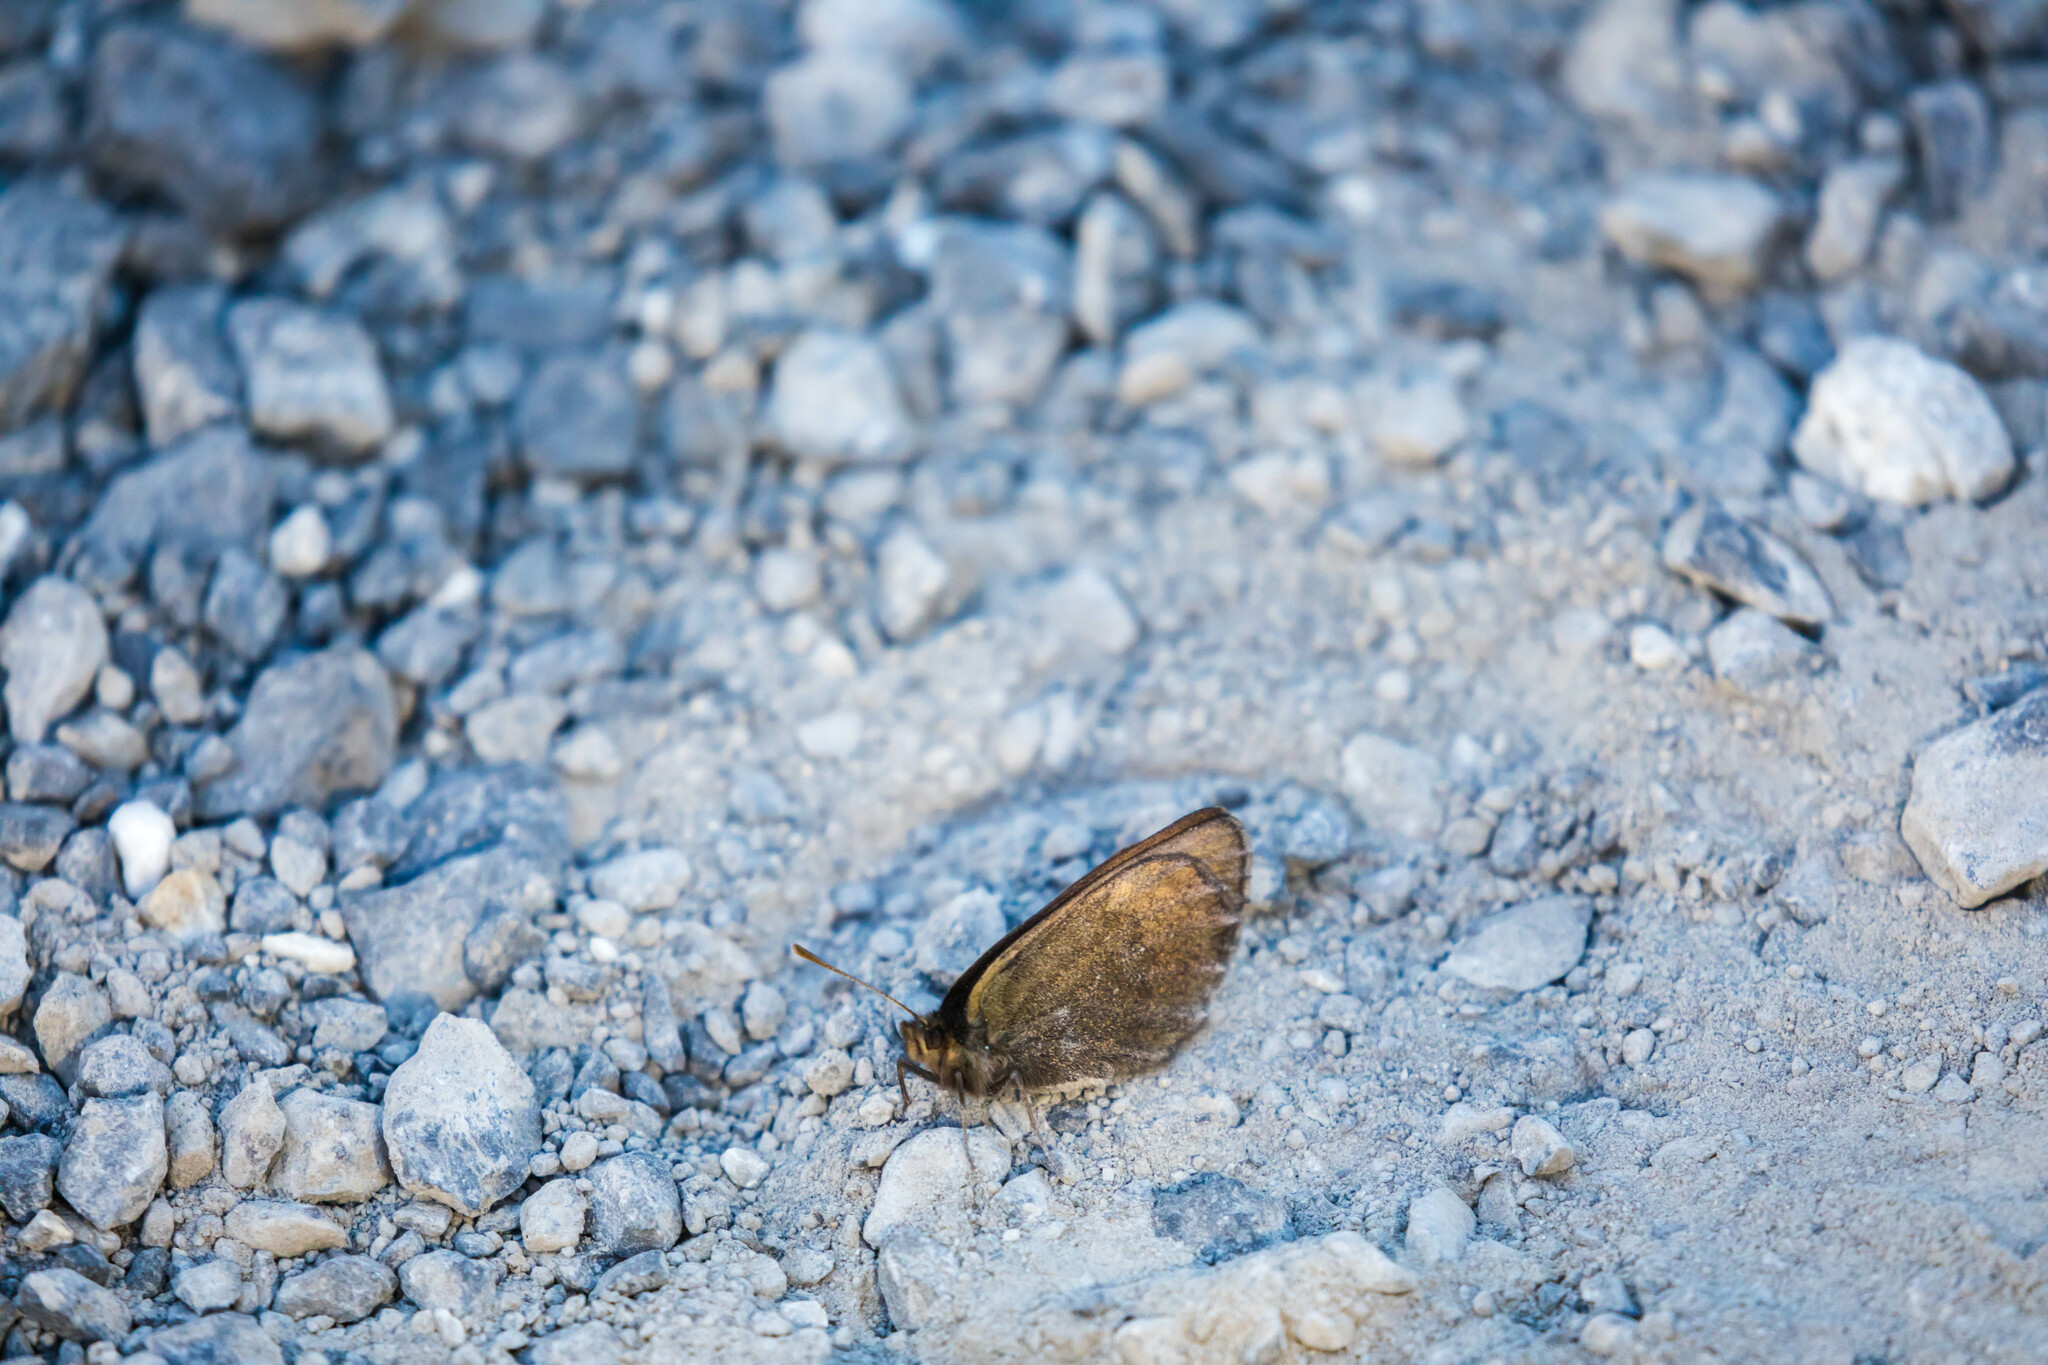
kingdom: Animalia
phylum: Arthropoda
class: Insecta
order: Lepidoptera
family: Nymphalidae
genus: Erebia
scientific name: Erebia pluto
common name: Sooty ringlet
